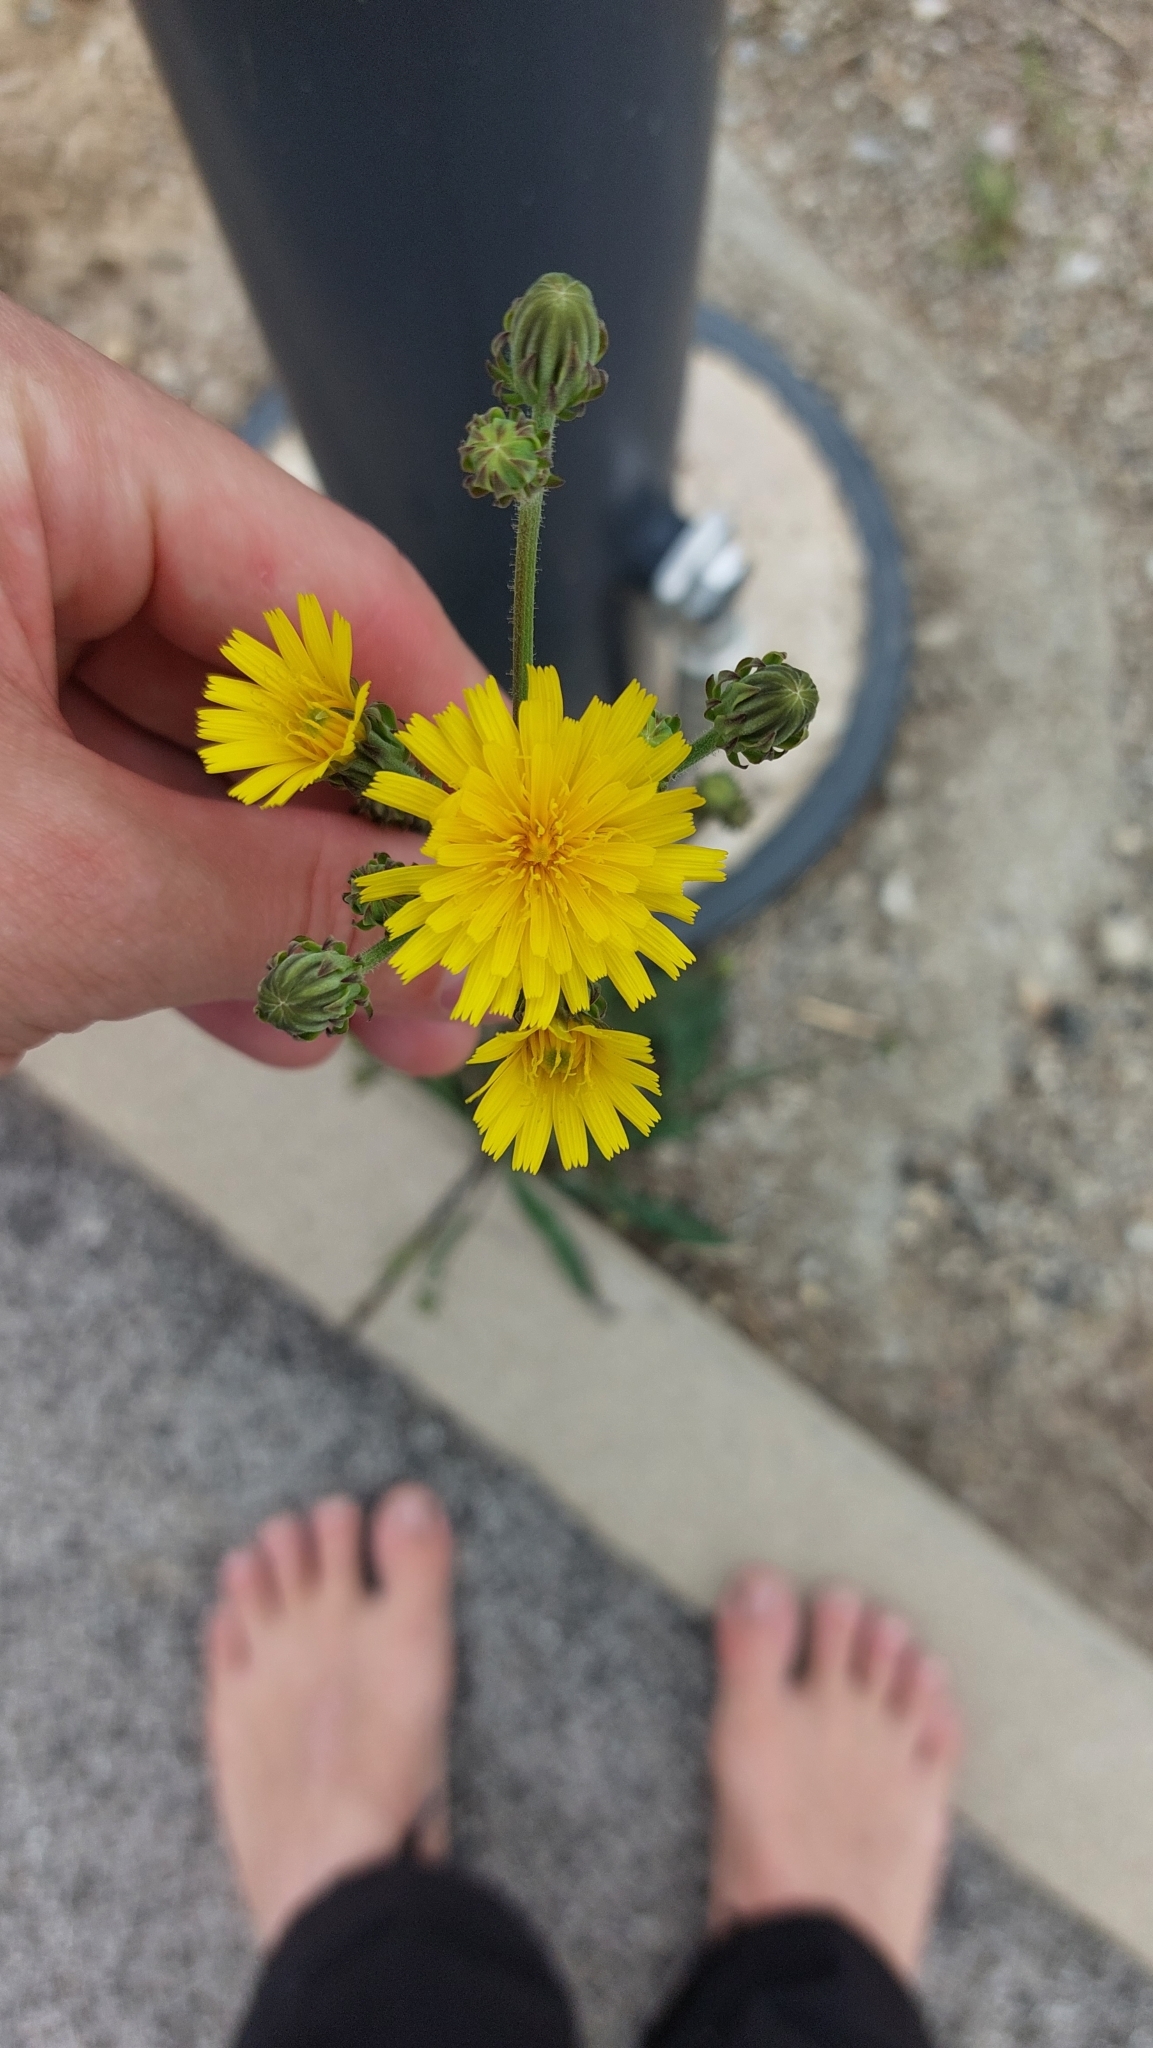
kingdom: Plantae
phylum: Tracheophyta
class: Magnoliopsida
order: Asterales
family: Asteraceae
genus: Picris
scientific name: Picris hieracioides
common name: Hawkweed oxtongue
